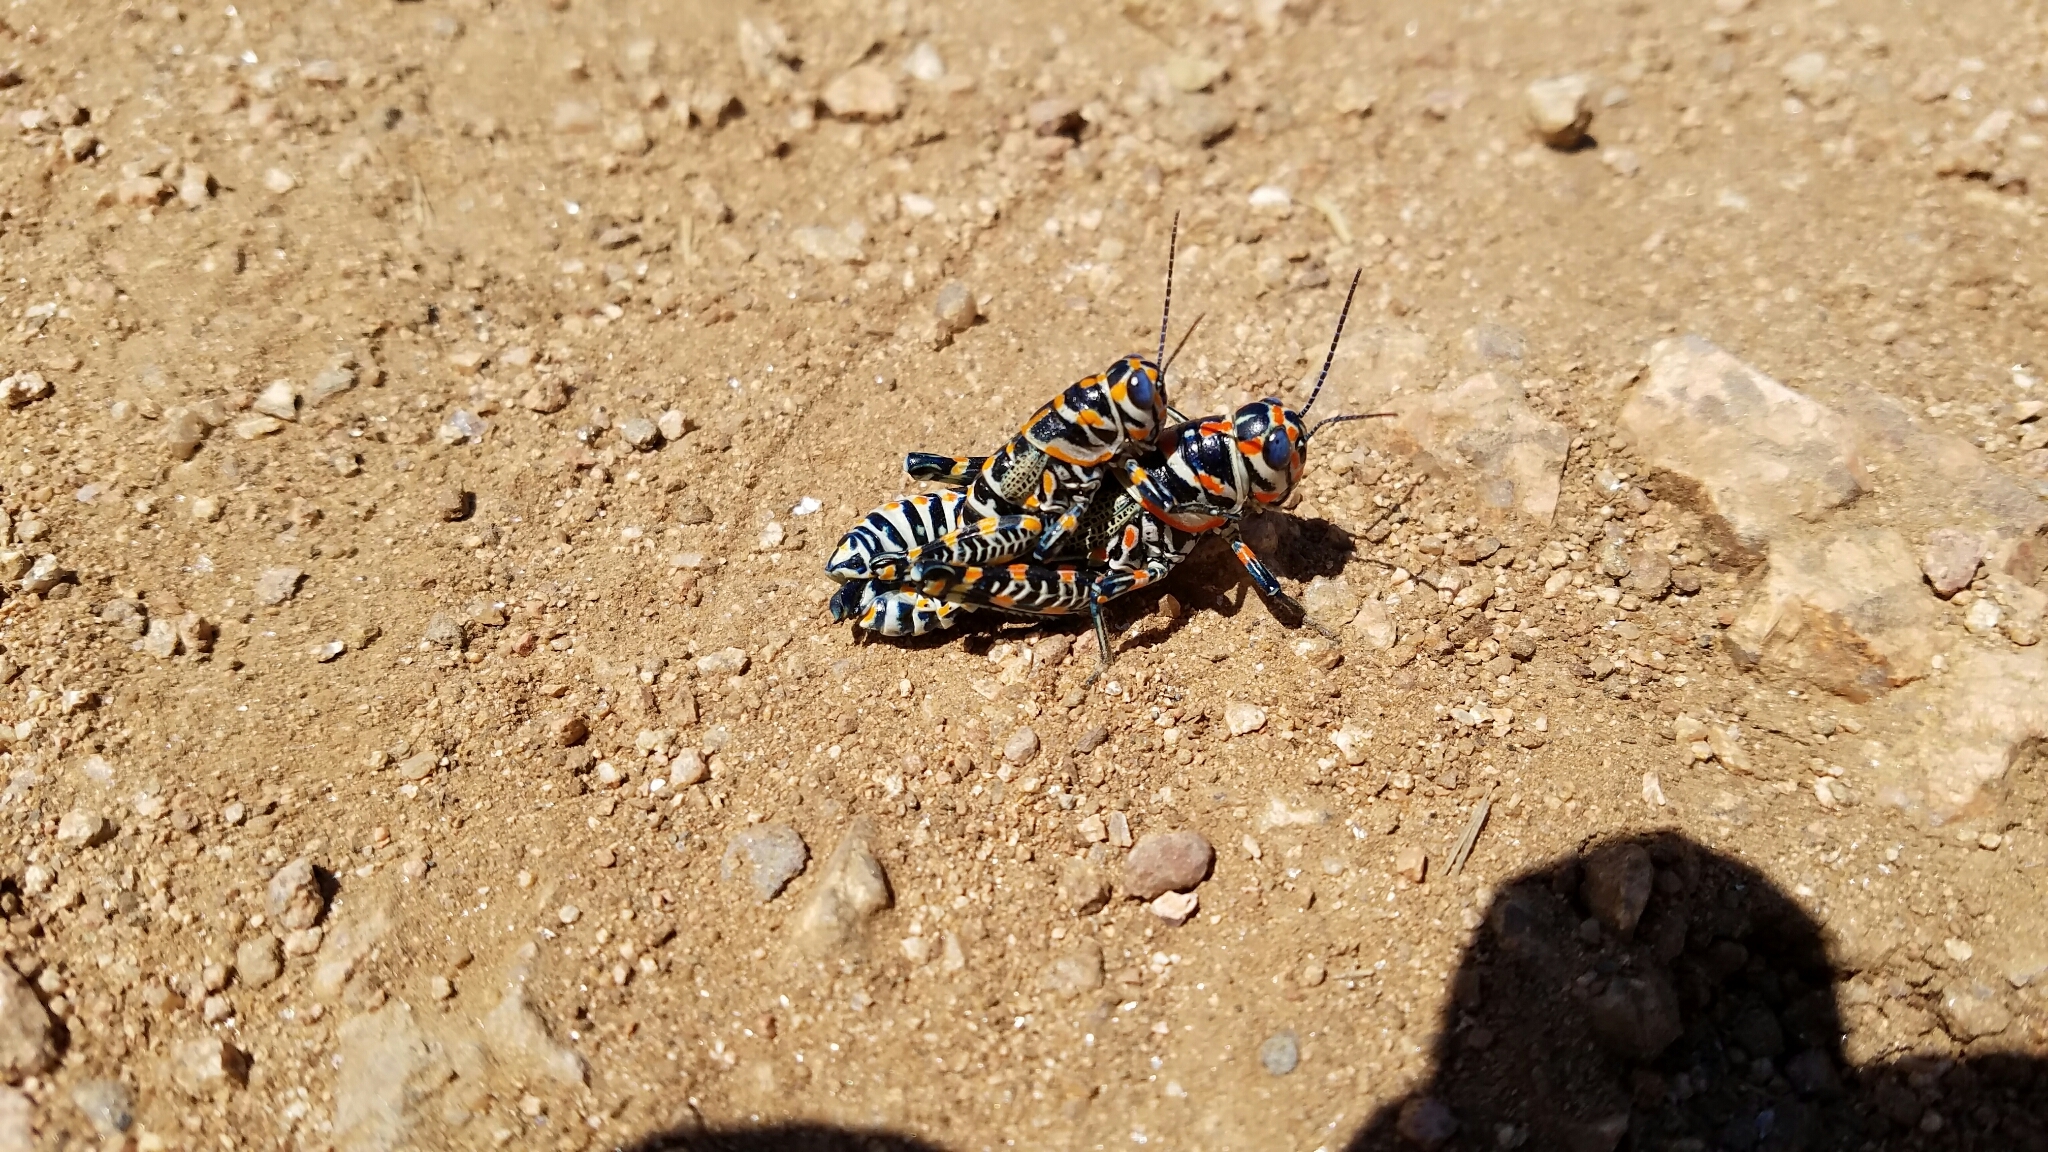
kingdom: Animalia
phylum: Arthropoda
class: Insecta
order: Orthoptera
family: Acrididae
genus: Dactylotum
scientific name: Dactylotum bicolor
